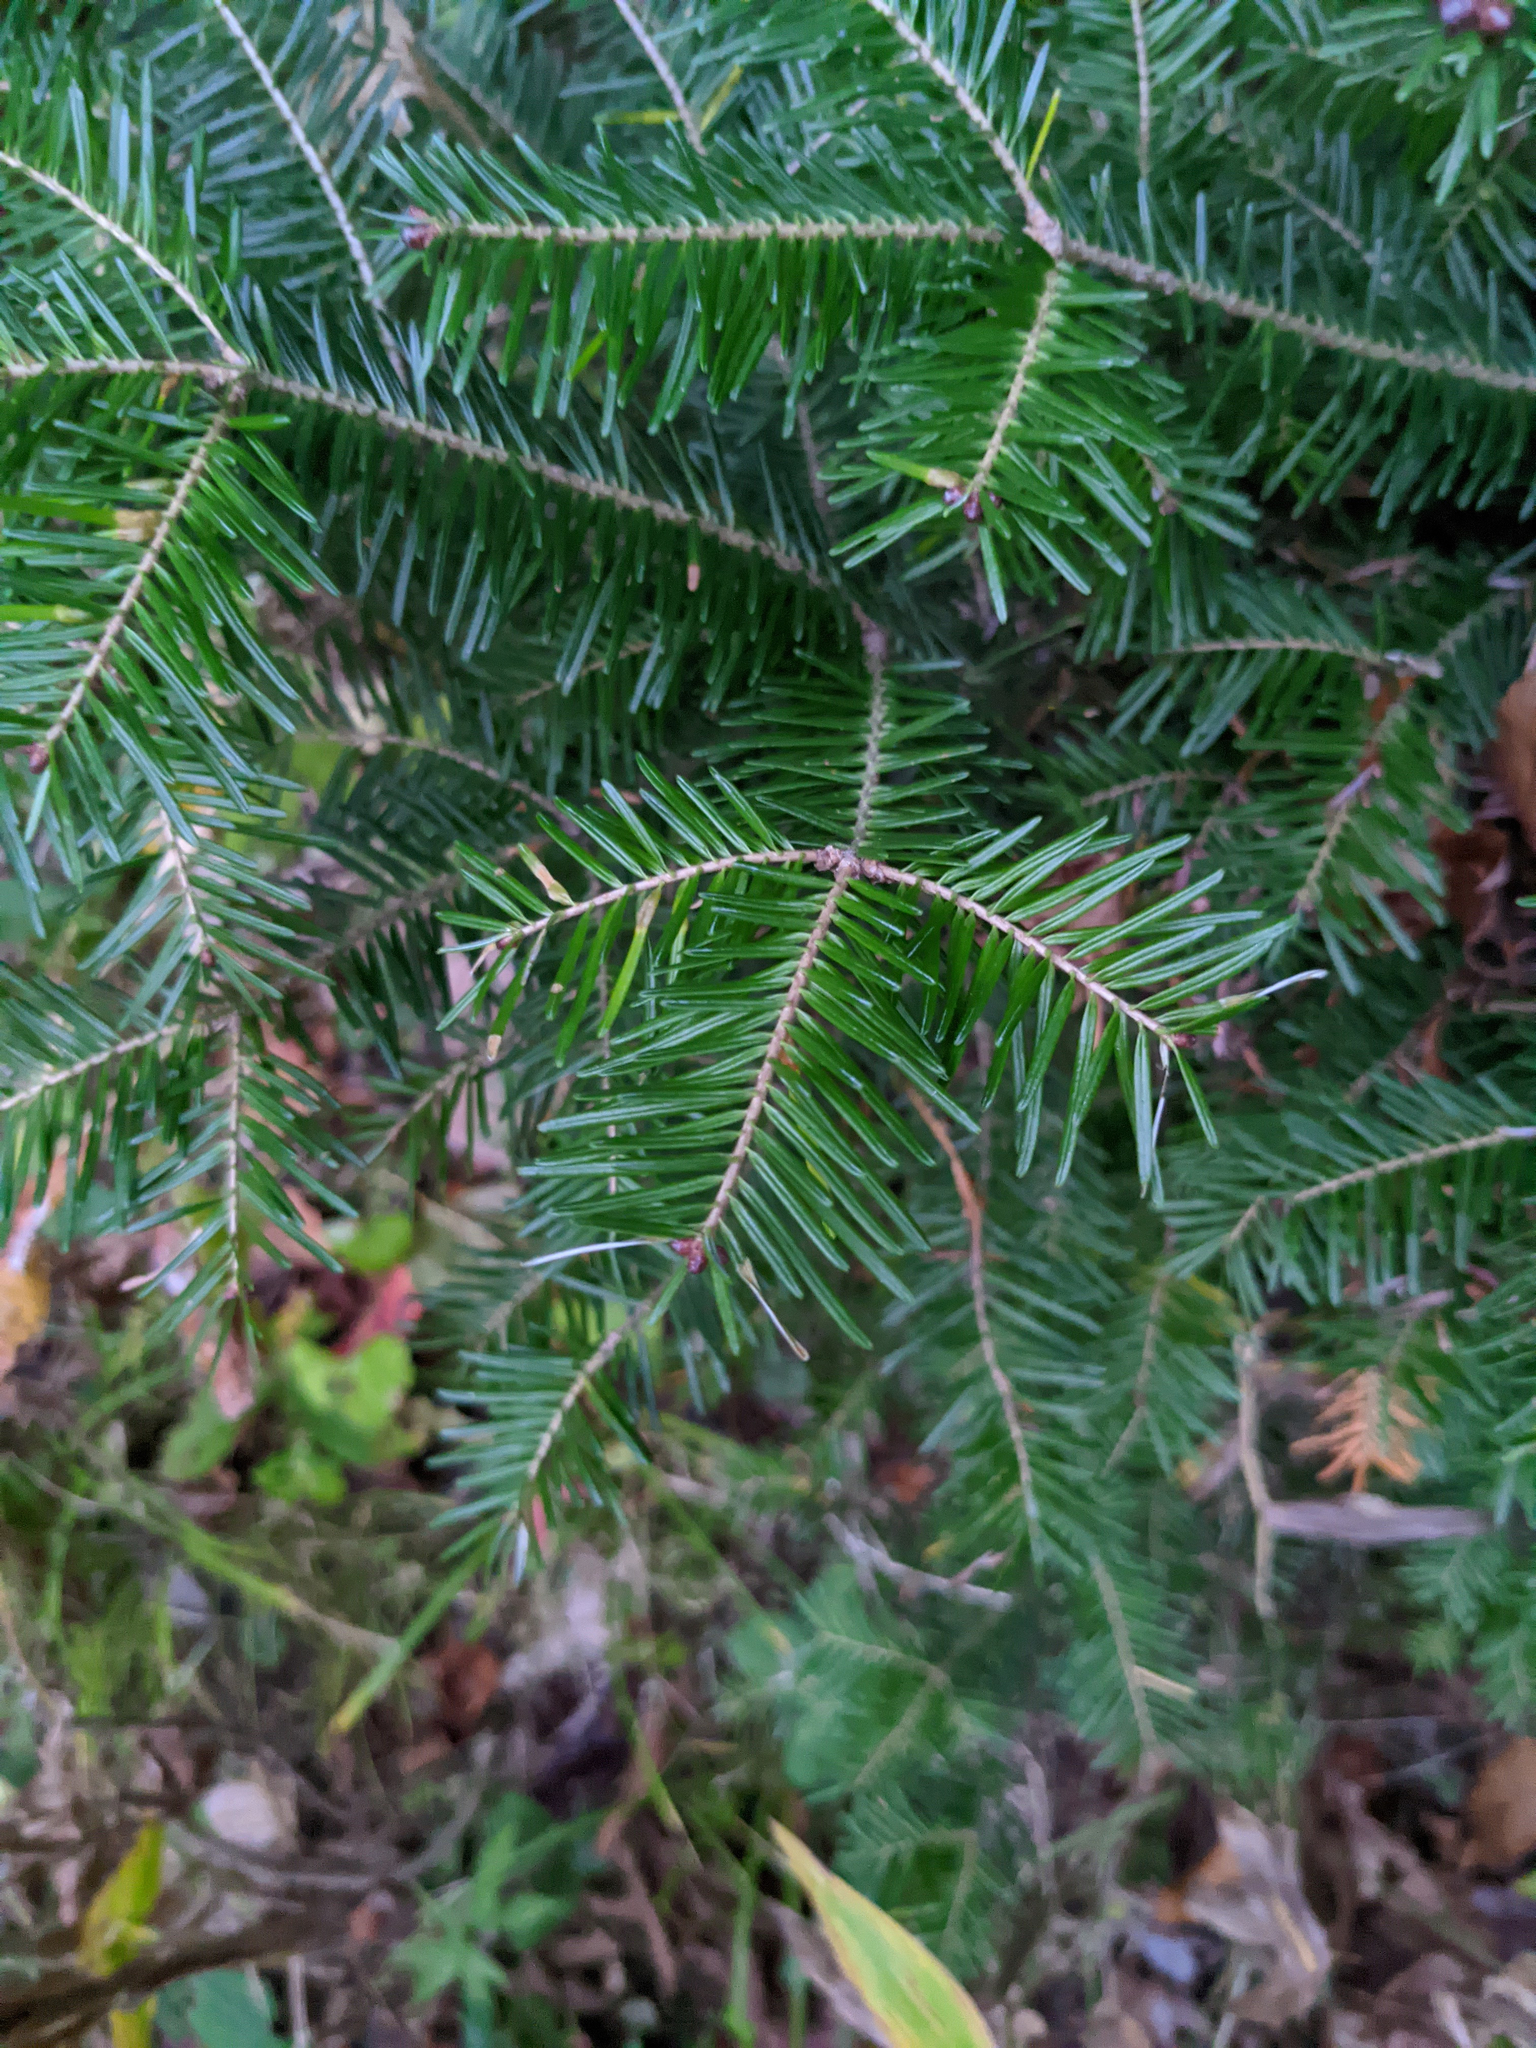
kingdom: Plantae
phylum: Tracheophyta
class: Pinopsida
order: Pinales
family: Pinaceae
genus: Abies
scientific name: Abies balsamea
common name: Balsam fir
